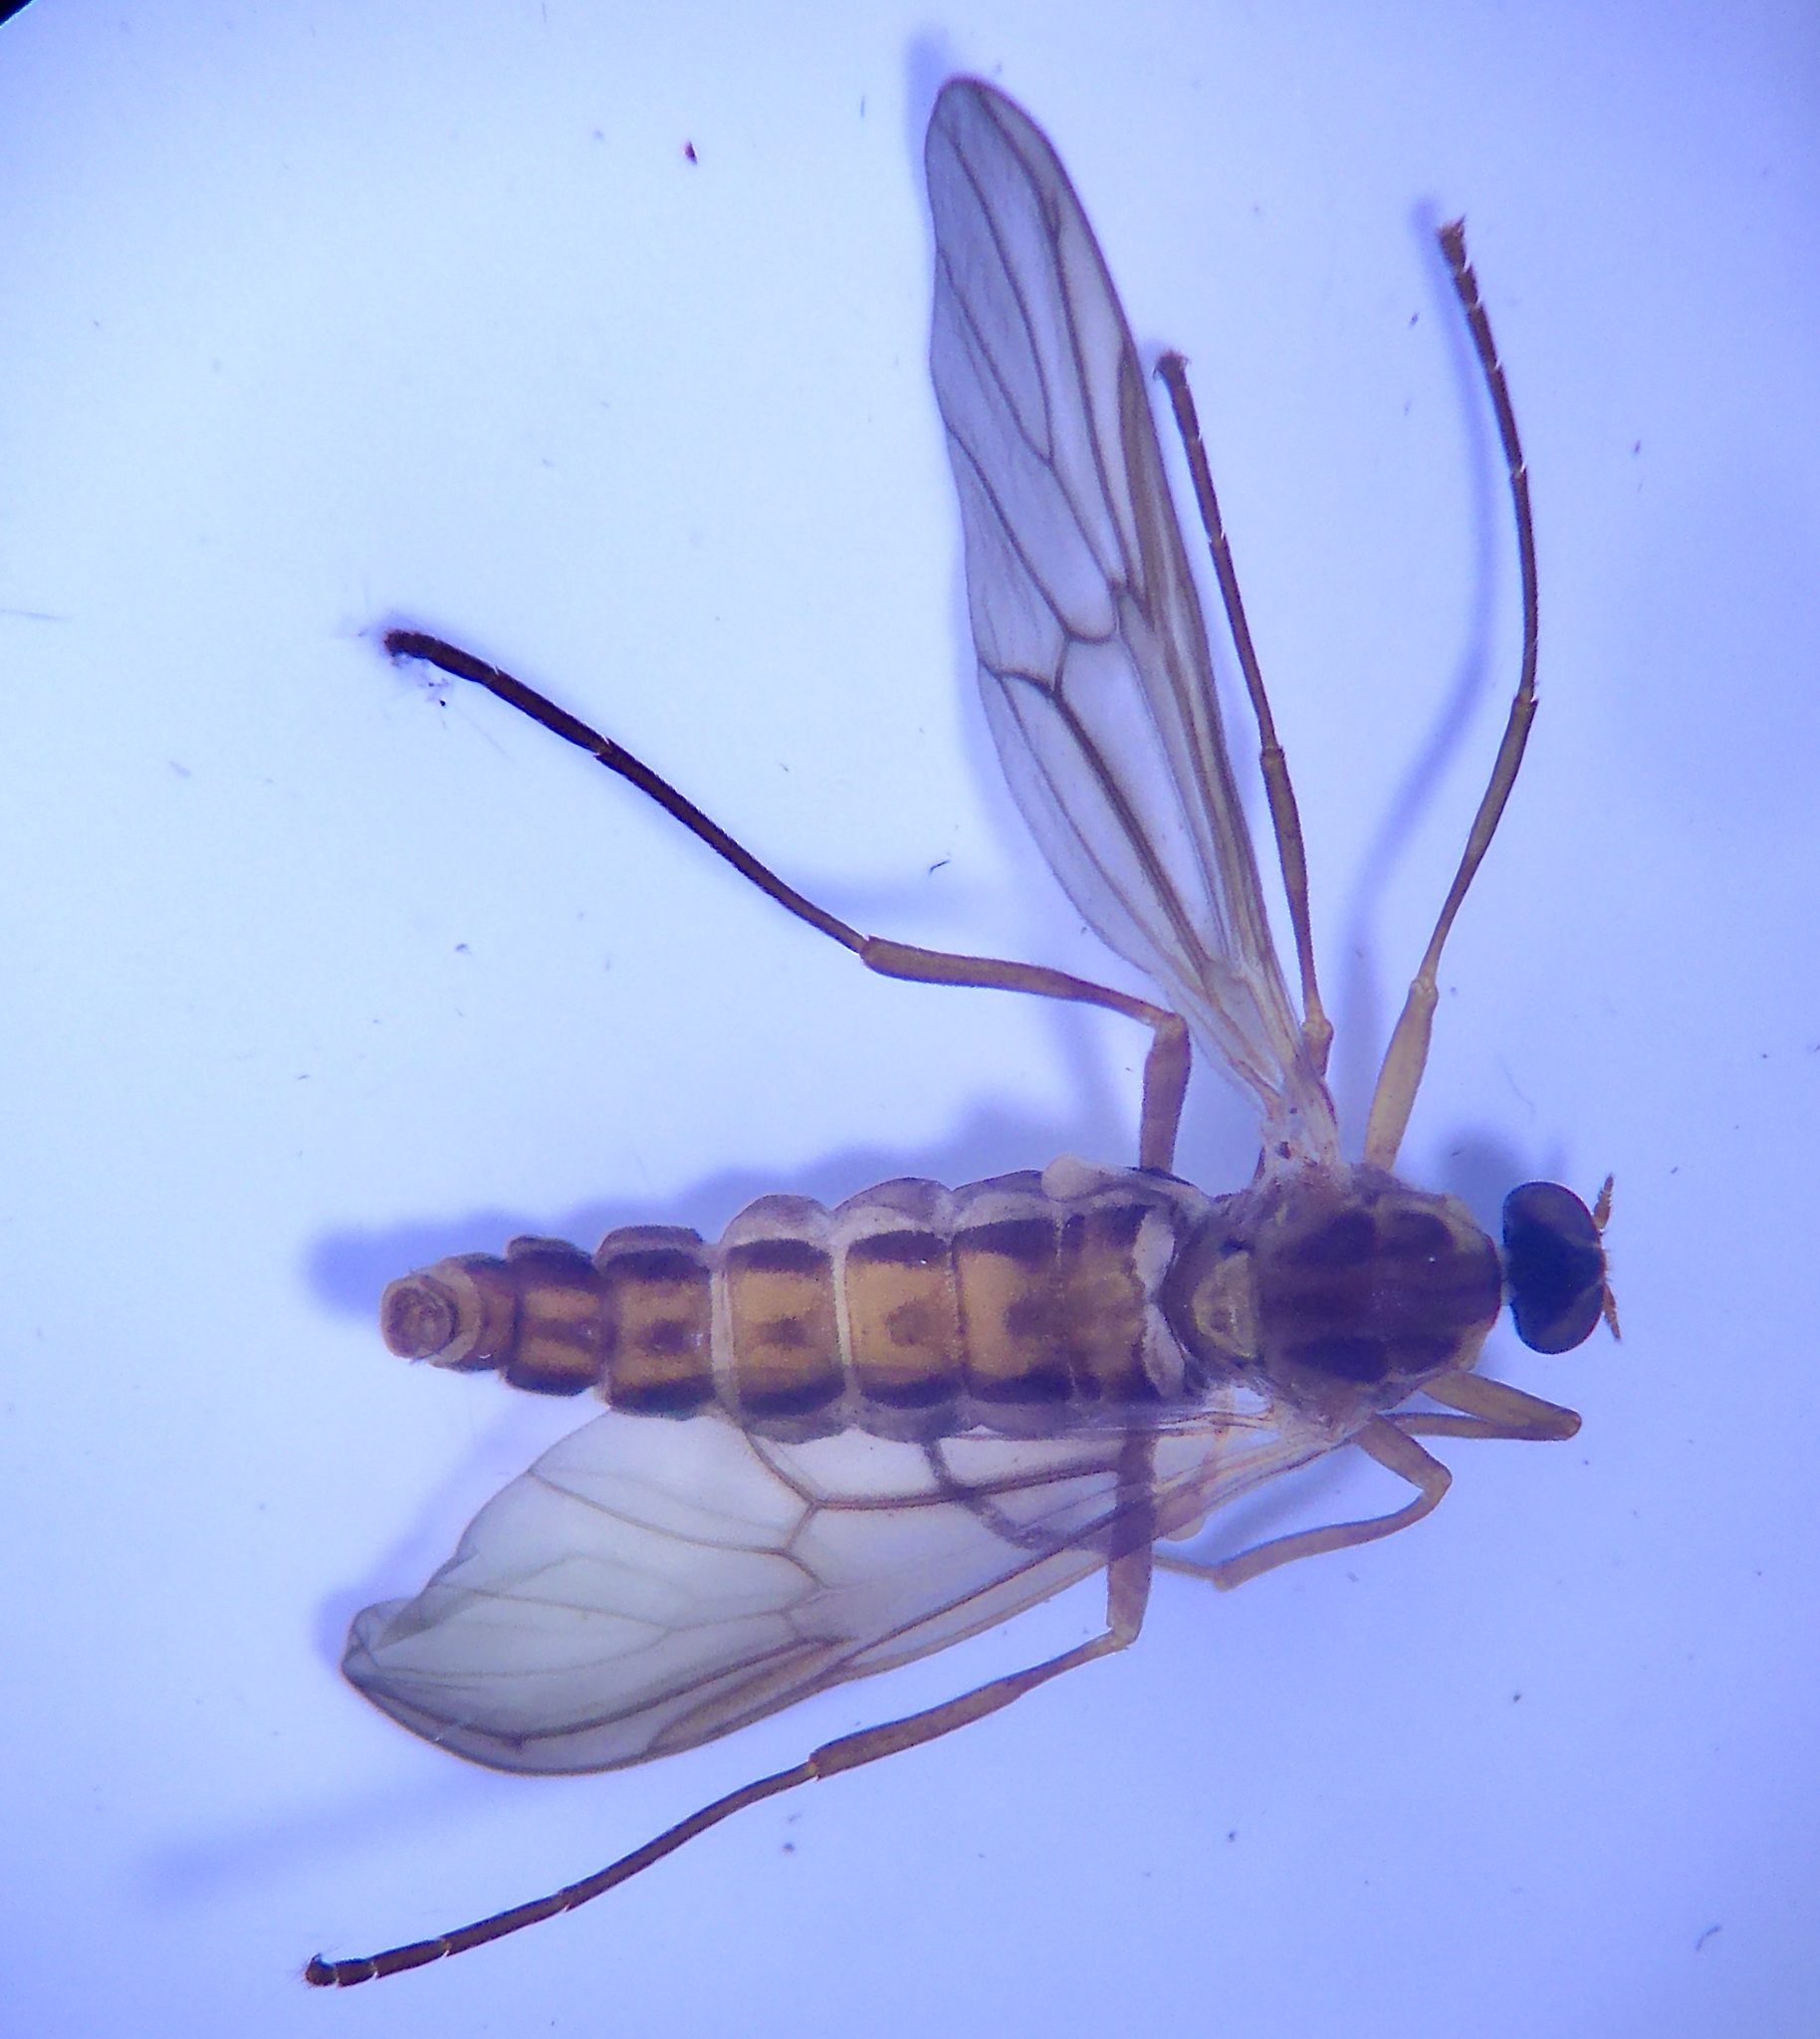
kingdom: Animalia
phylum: Arthropoda
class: Insecta
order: Diptera
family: Stratiomyidae
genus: Boreoides
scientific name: Boreoides tasmaniensis
